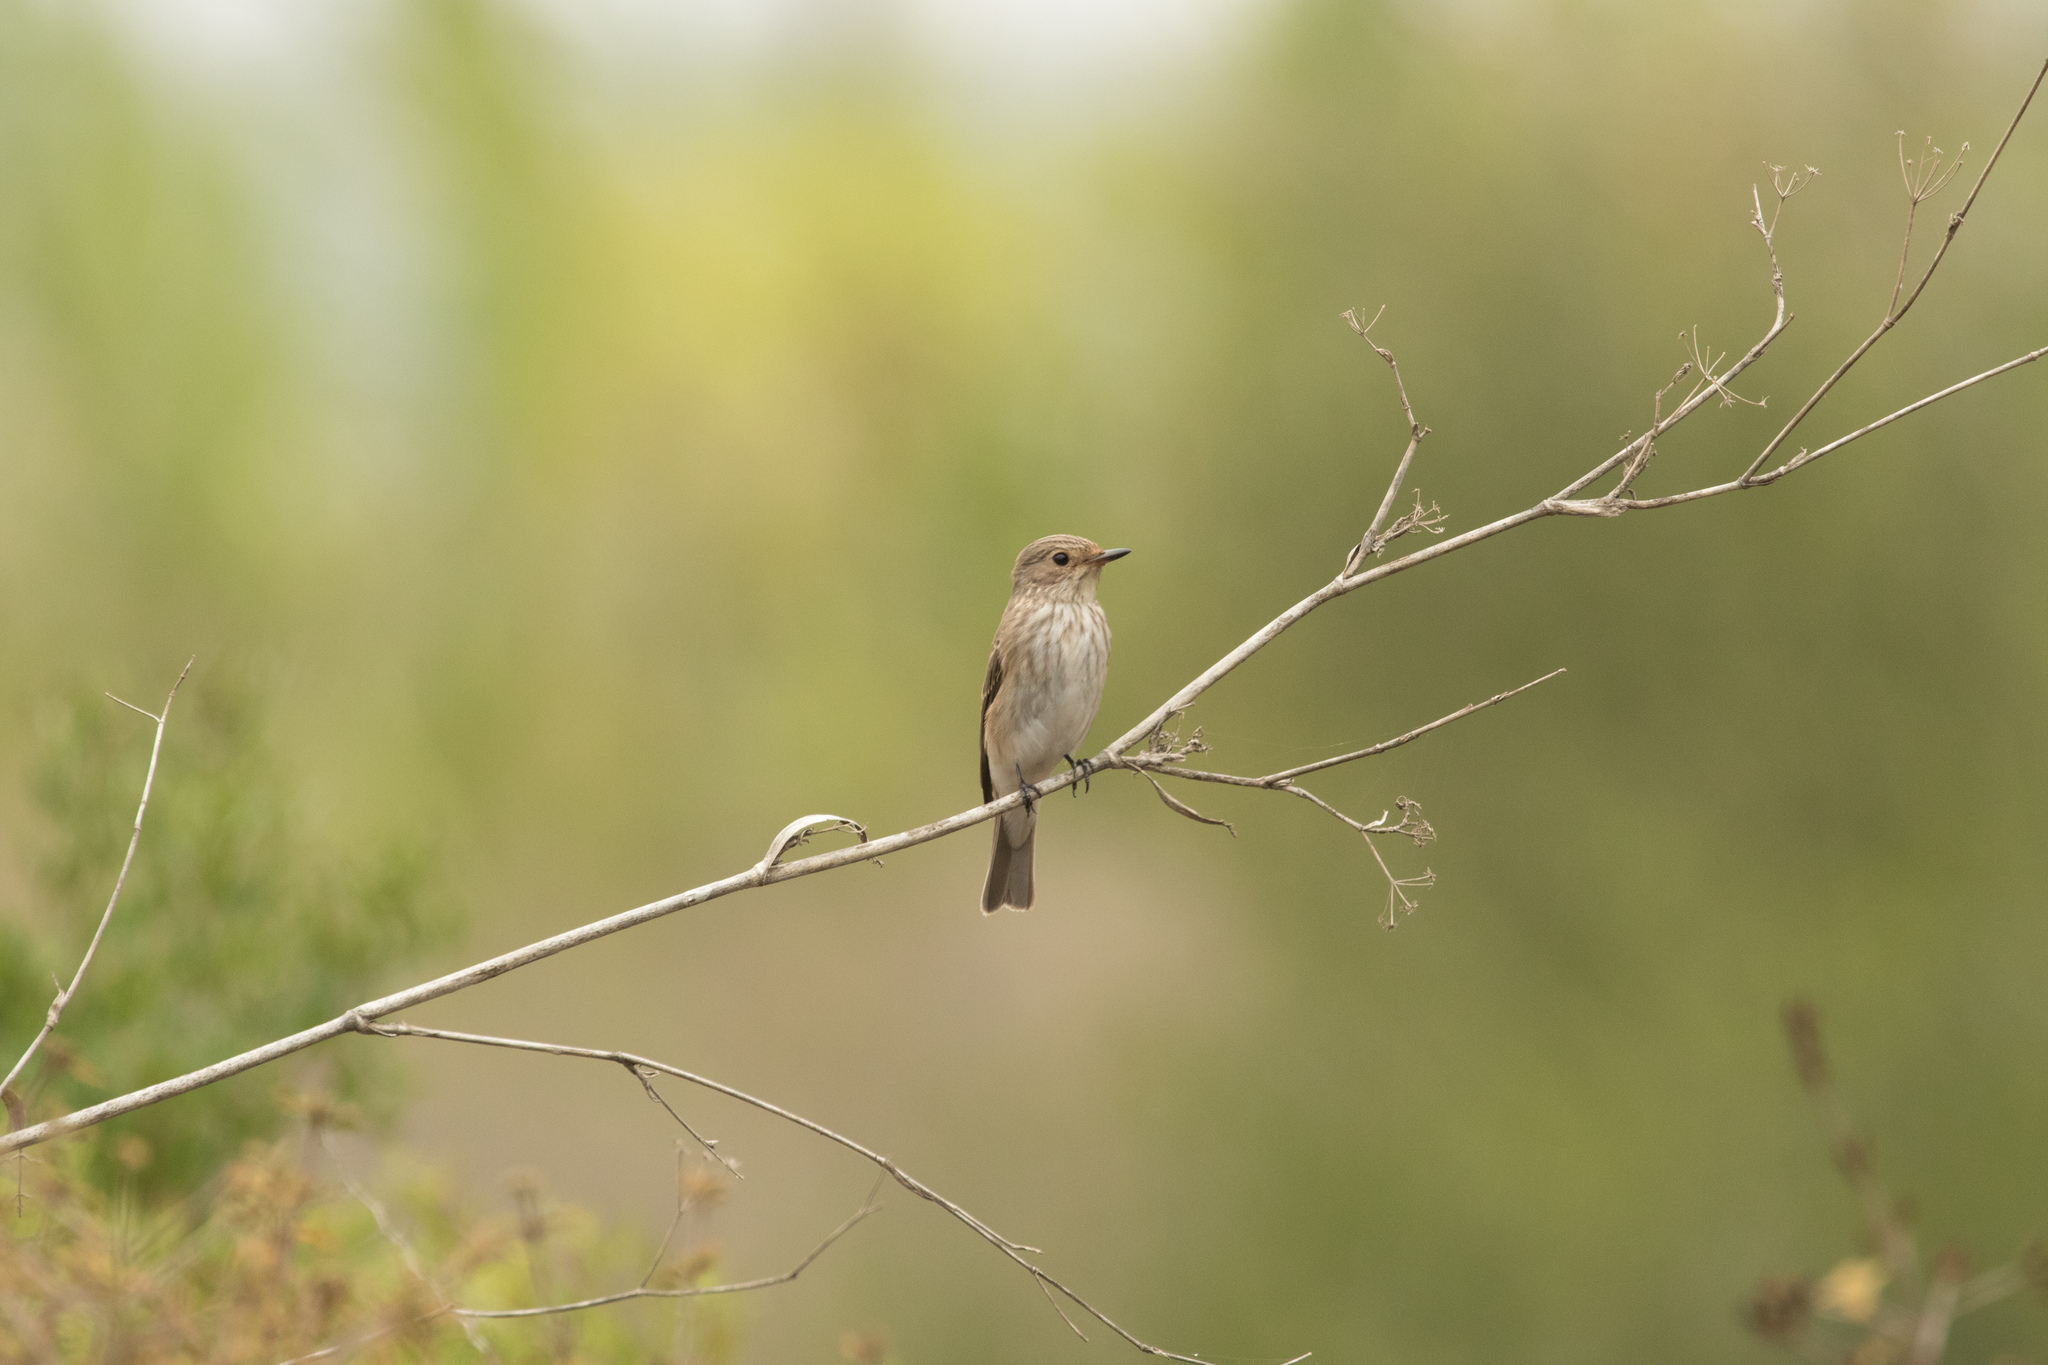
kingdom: Animalia
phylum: Chordata
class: Aves
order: Passeriformes
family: Muscicapidae
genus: Muscicapa
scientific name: Muscicapa striata
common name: Spotted flycatcher
